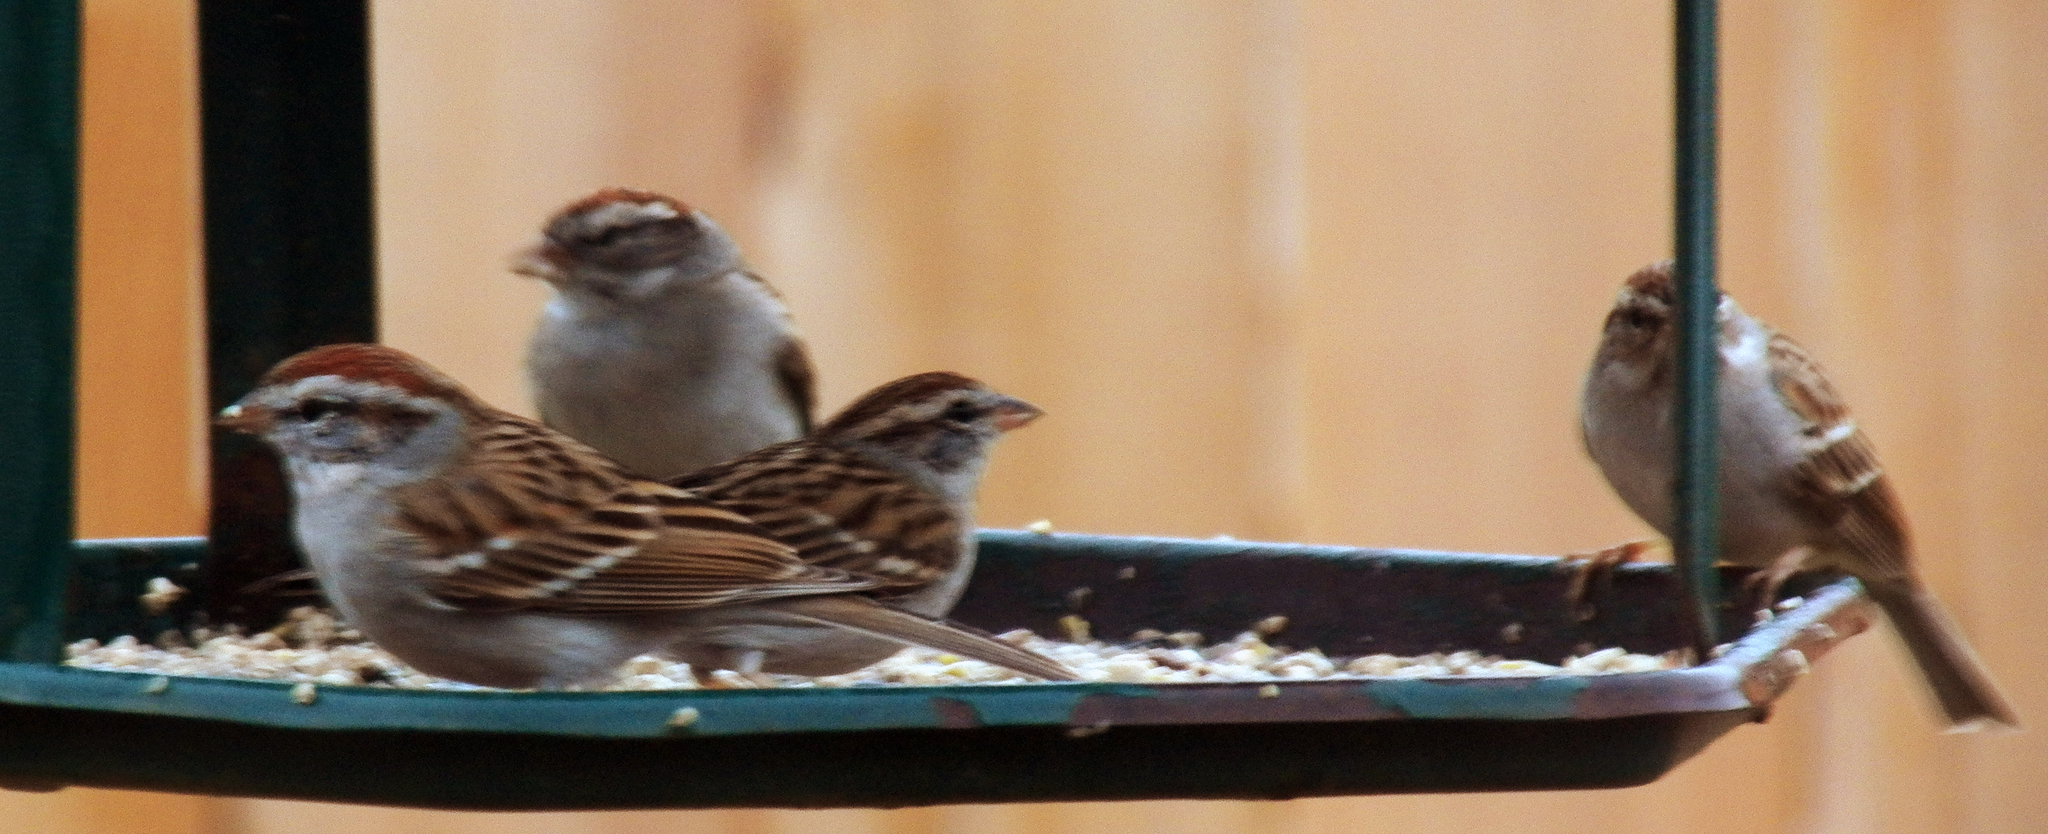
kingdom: Animalia
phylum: Chordata
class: Aves
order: Passeriformes
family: Passerellidae
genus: Spizella
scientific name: Spizella passerina
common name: Chipping sparrow
